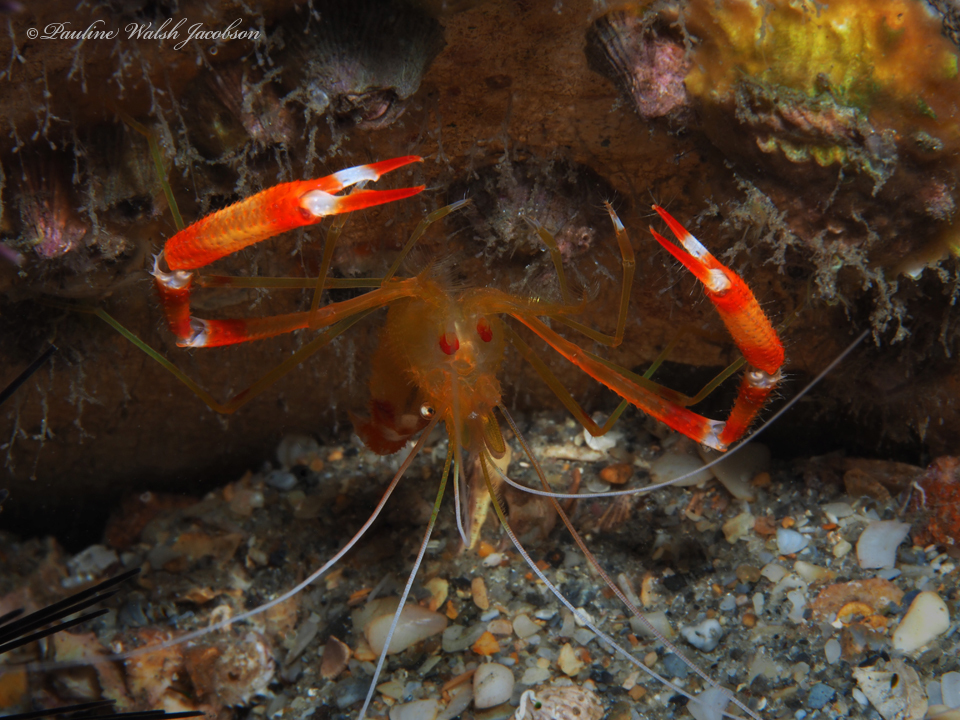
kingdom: Animalia
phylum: Arthropoda
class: Malacostraca
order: Decapoda
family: Stenopodidae
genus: Stenopus
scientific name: Stenopus scutellatus
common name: Golden coral shrimp
